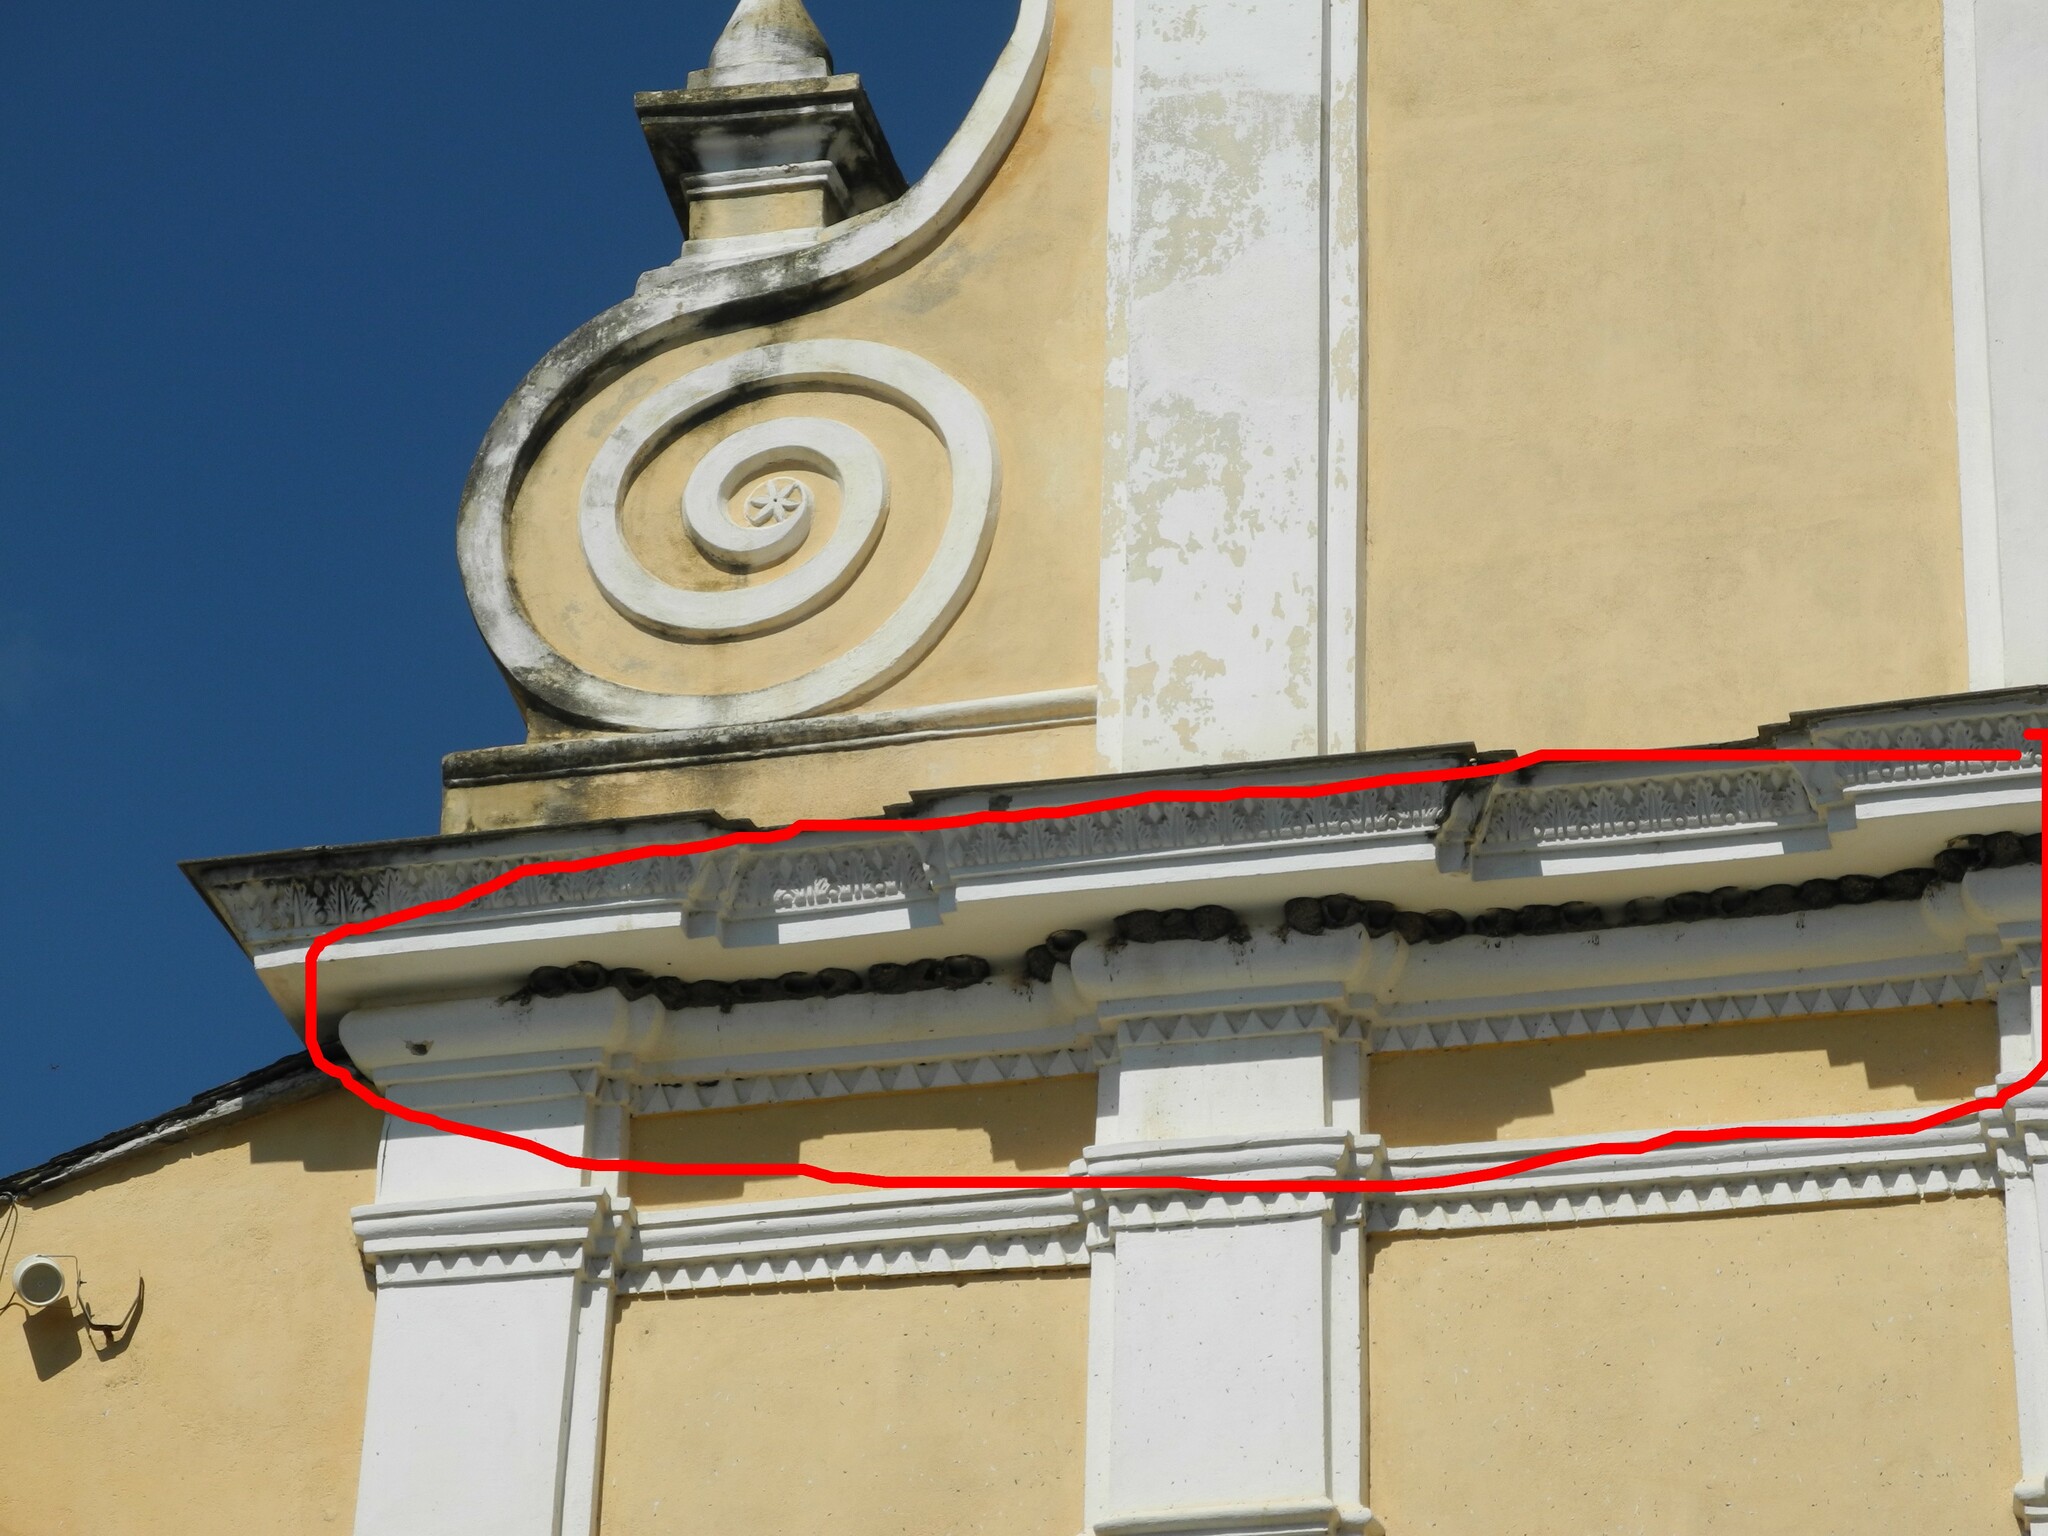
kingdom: Animalia
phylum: Chordata
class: Aves
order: Passeriformes
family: Hirundinidae
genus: Delichon
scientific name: Delichon urbicum
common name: Common house martin
